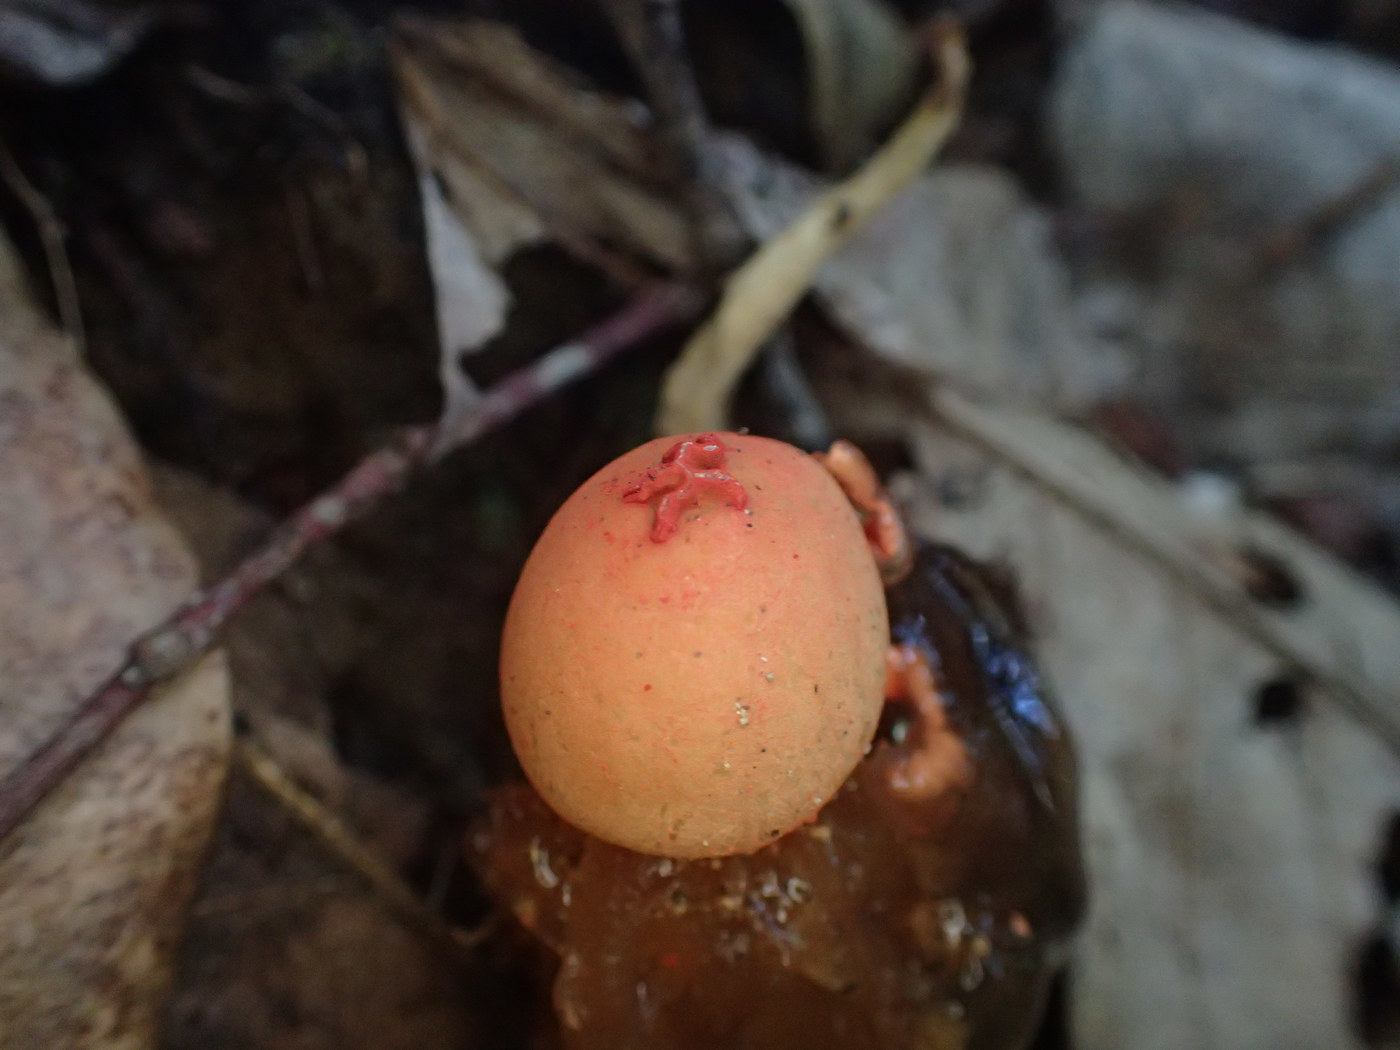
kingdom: Fungi
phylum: Basidiomycota
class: Agaricomycetes
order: Boletales
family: Calostomataceae
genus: Calostoma
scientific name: Calostoma cinnabarinum
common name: Stalked puffball-in-aspic
